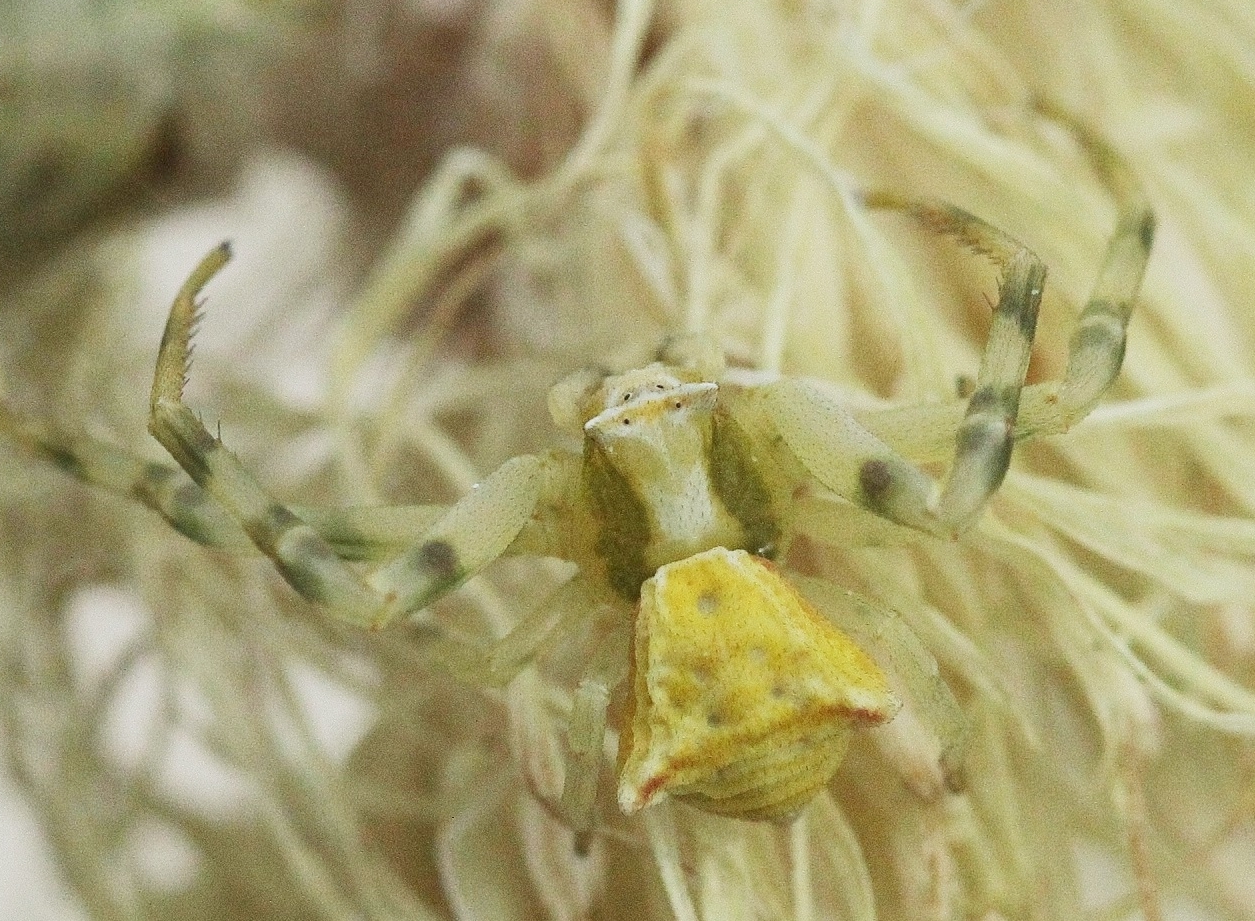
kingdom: Animalia
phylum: Arthropoda
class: Arachnida
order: Araneae
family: Thomisidae
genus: Thomisus
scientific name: Thomisus onustus
